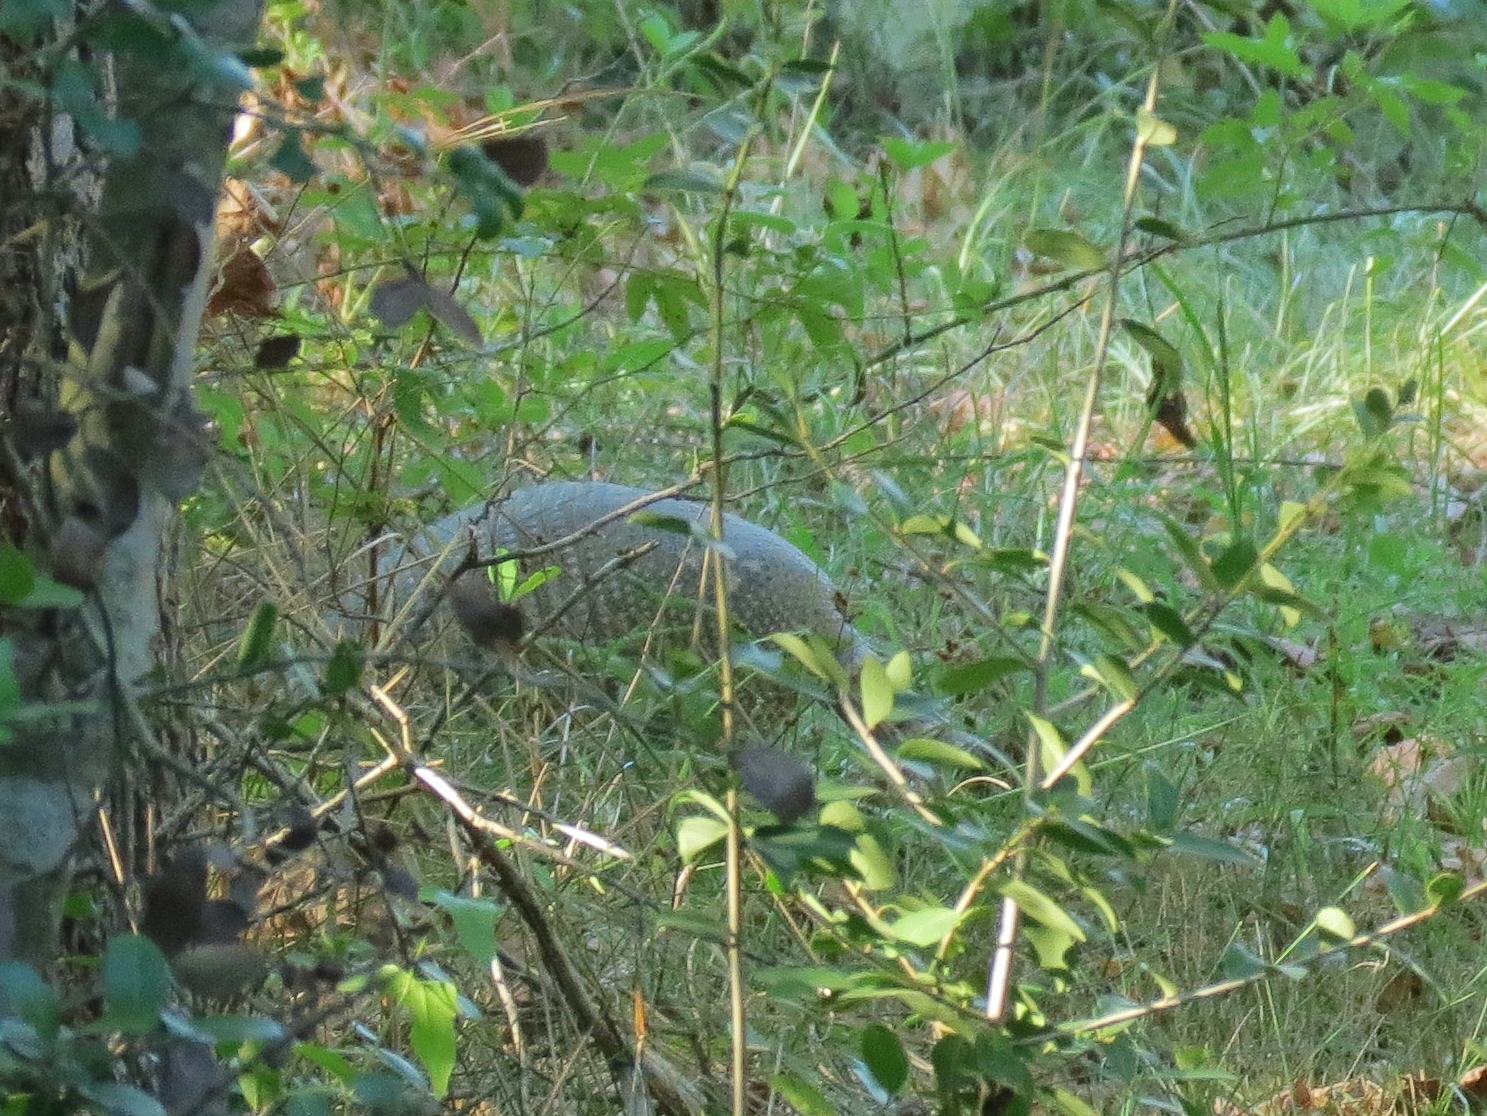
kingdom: Animalia
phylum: Chordata
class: Mammalia
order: Cingulata
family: Dasypodidae
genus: Dasypus
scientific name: Dasypus novemcinctus
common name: Nine-banded armadillo
